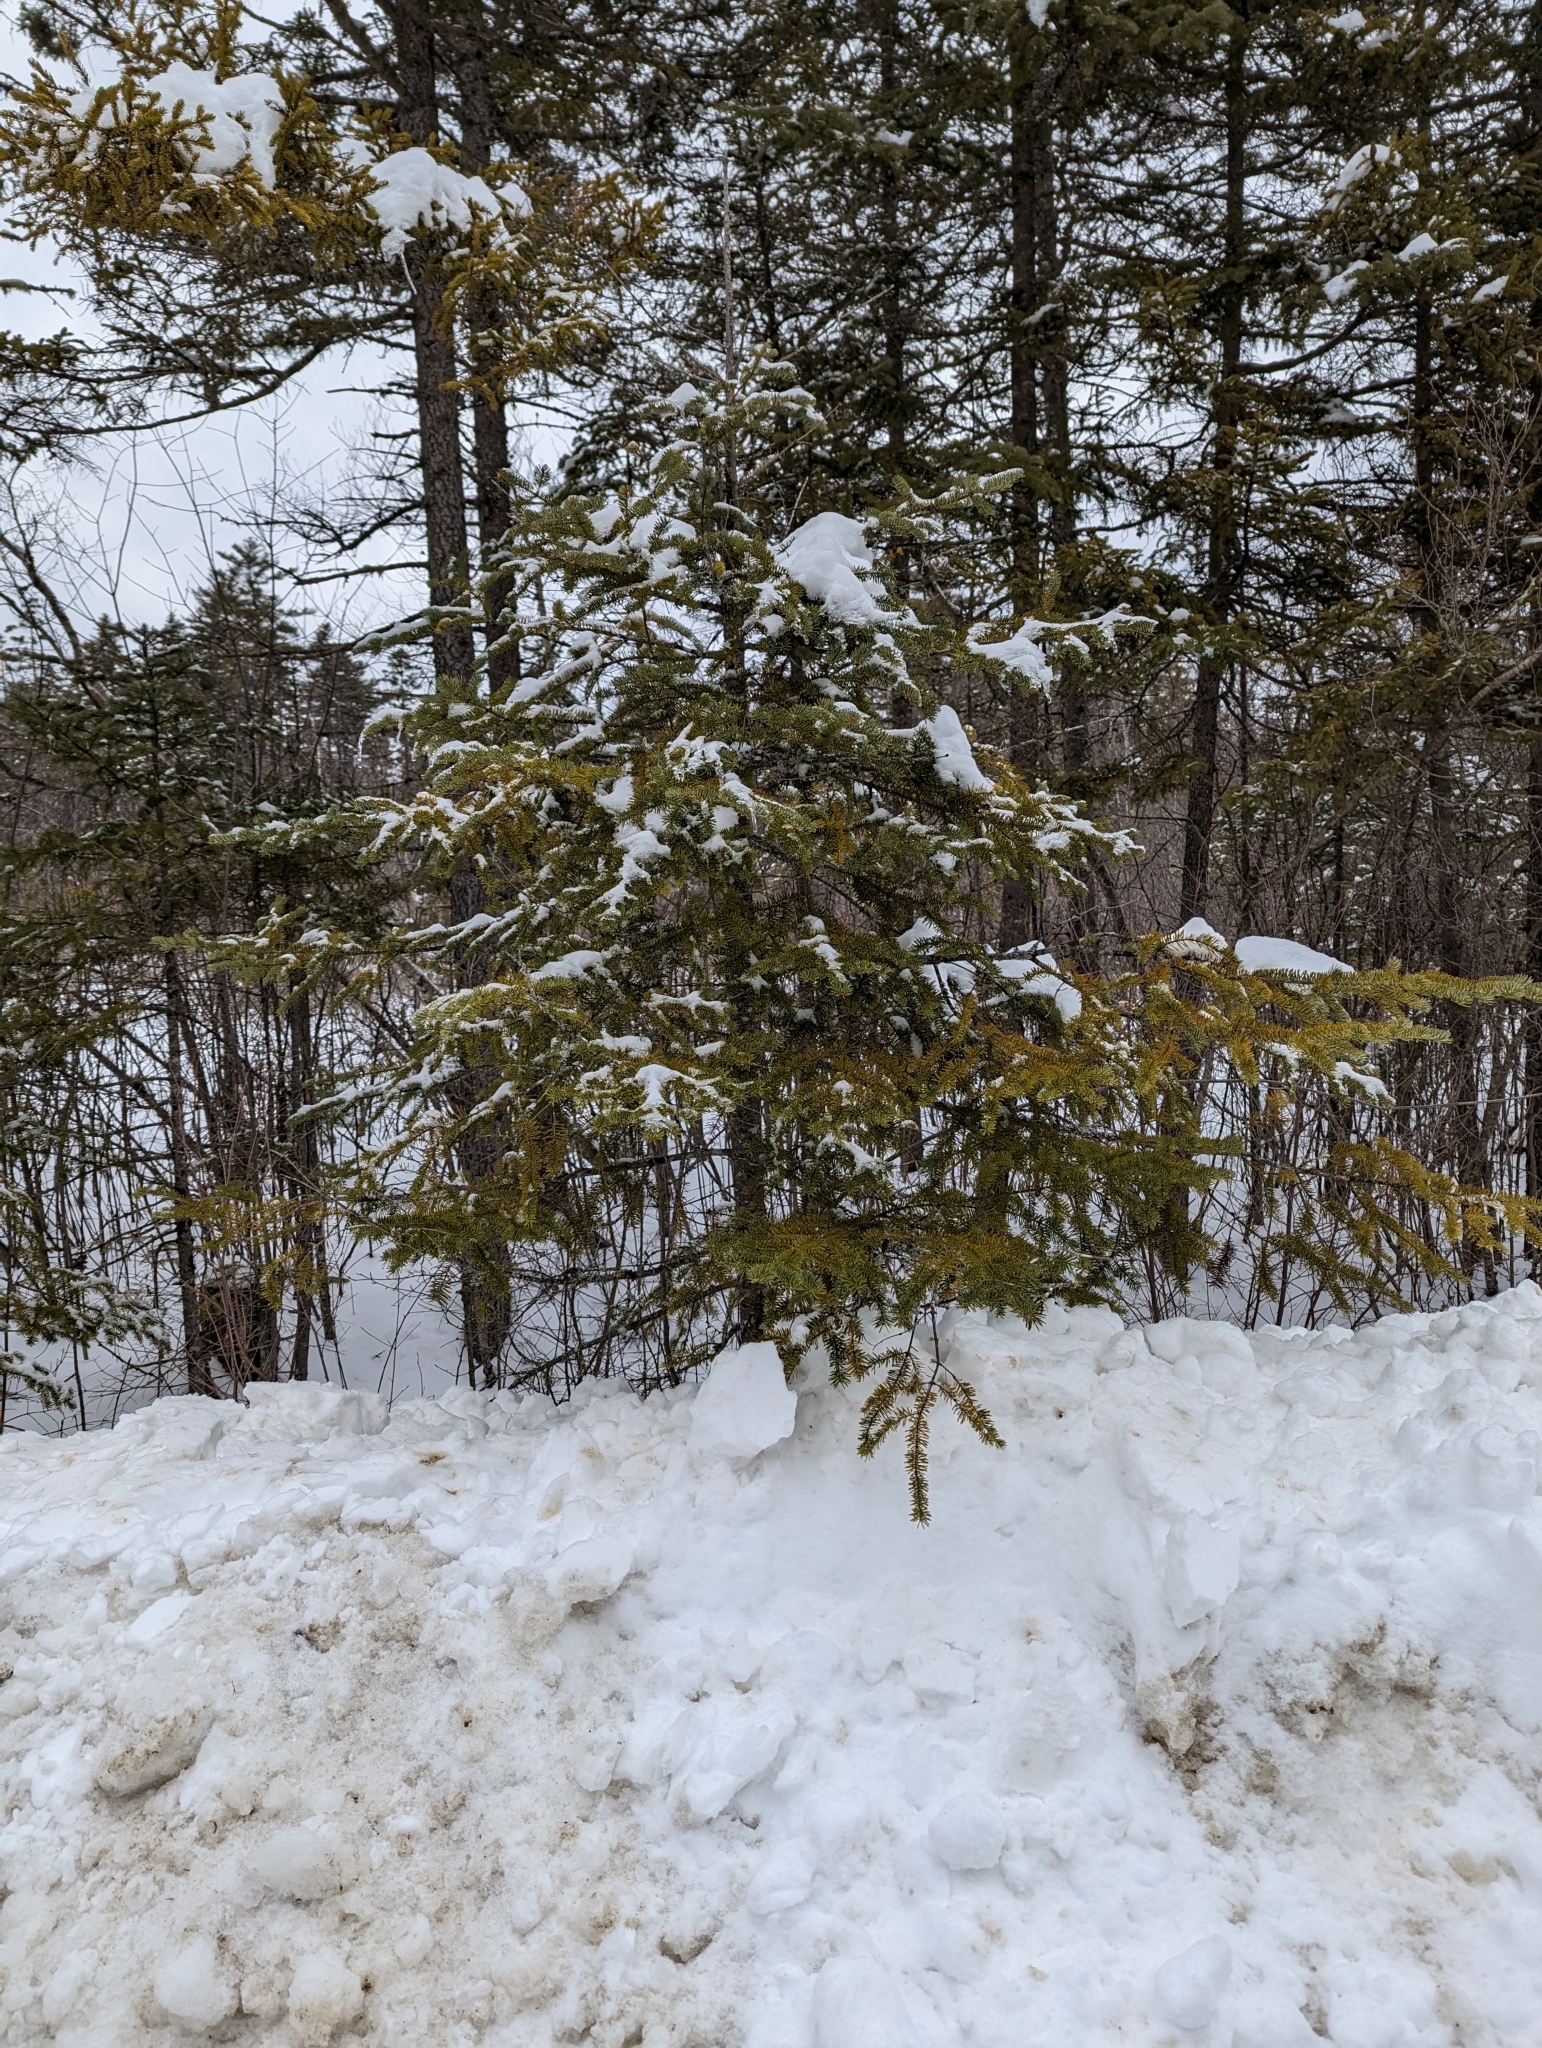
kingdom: Plantae
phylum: Tracheophyta
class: Pinopsida
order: Pinales
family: Pinaceae
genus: Abies
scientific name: Abies balsamea
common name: Balsam fir
